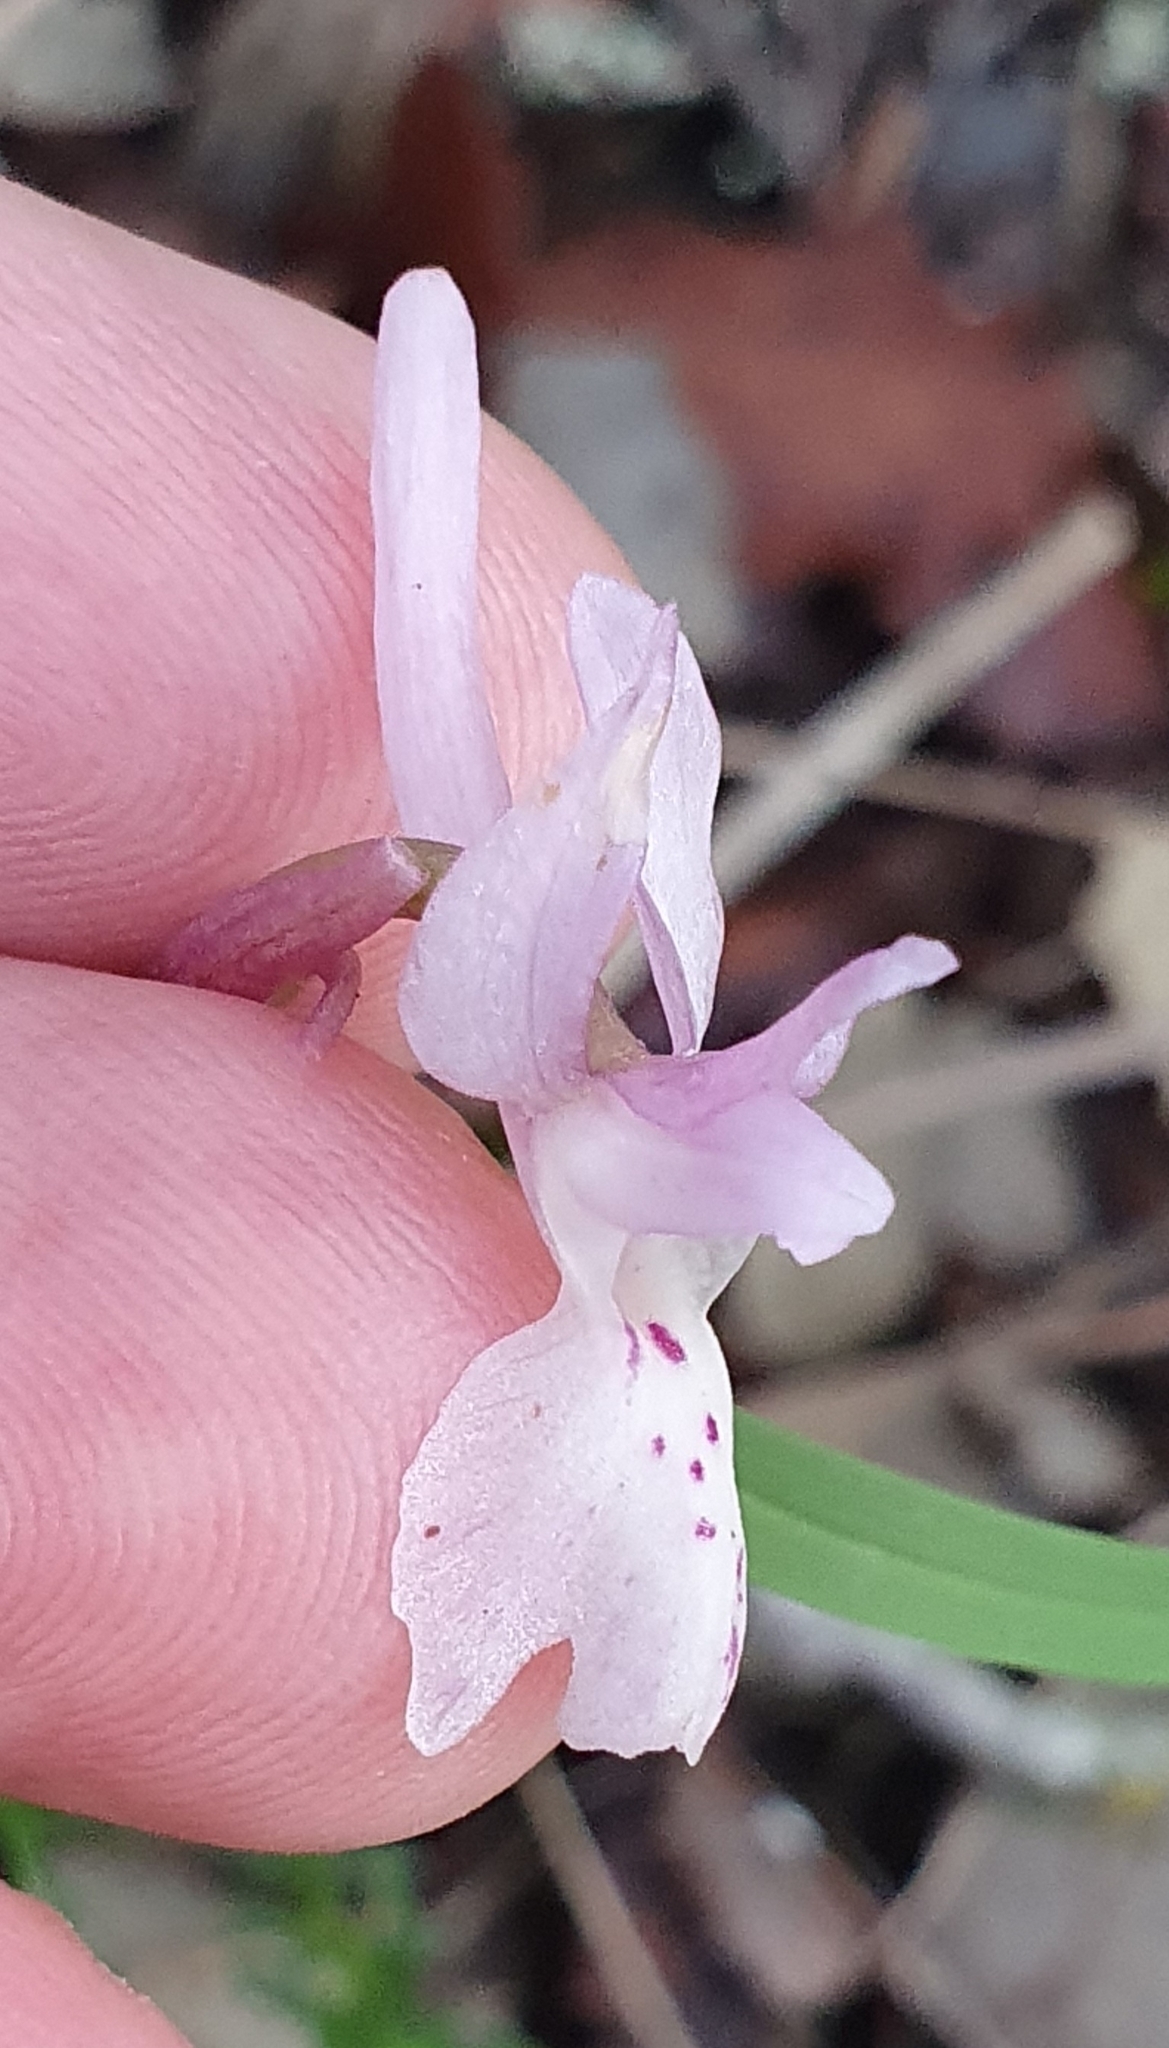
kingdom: Plantae
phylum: Tracheophyta
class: Liliopsida
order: Asparagales
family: Orchidaceae
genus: Orchis
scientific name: Orchis laeta
